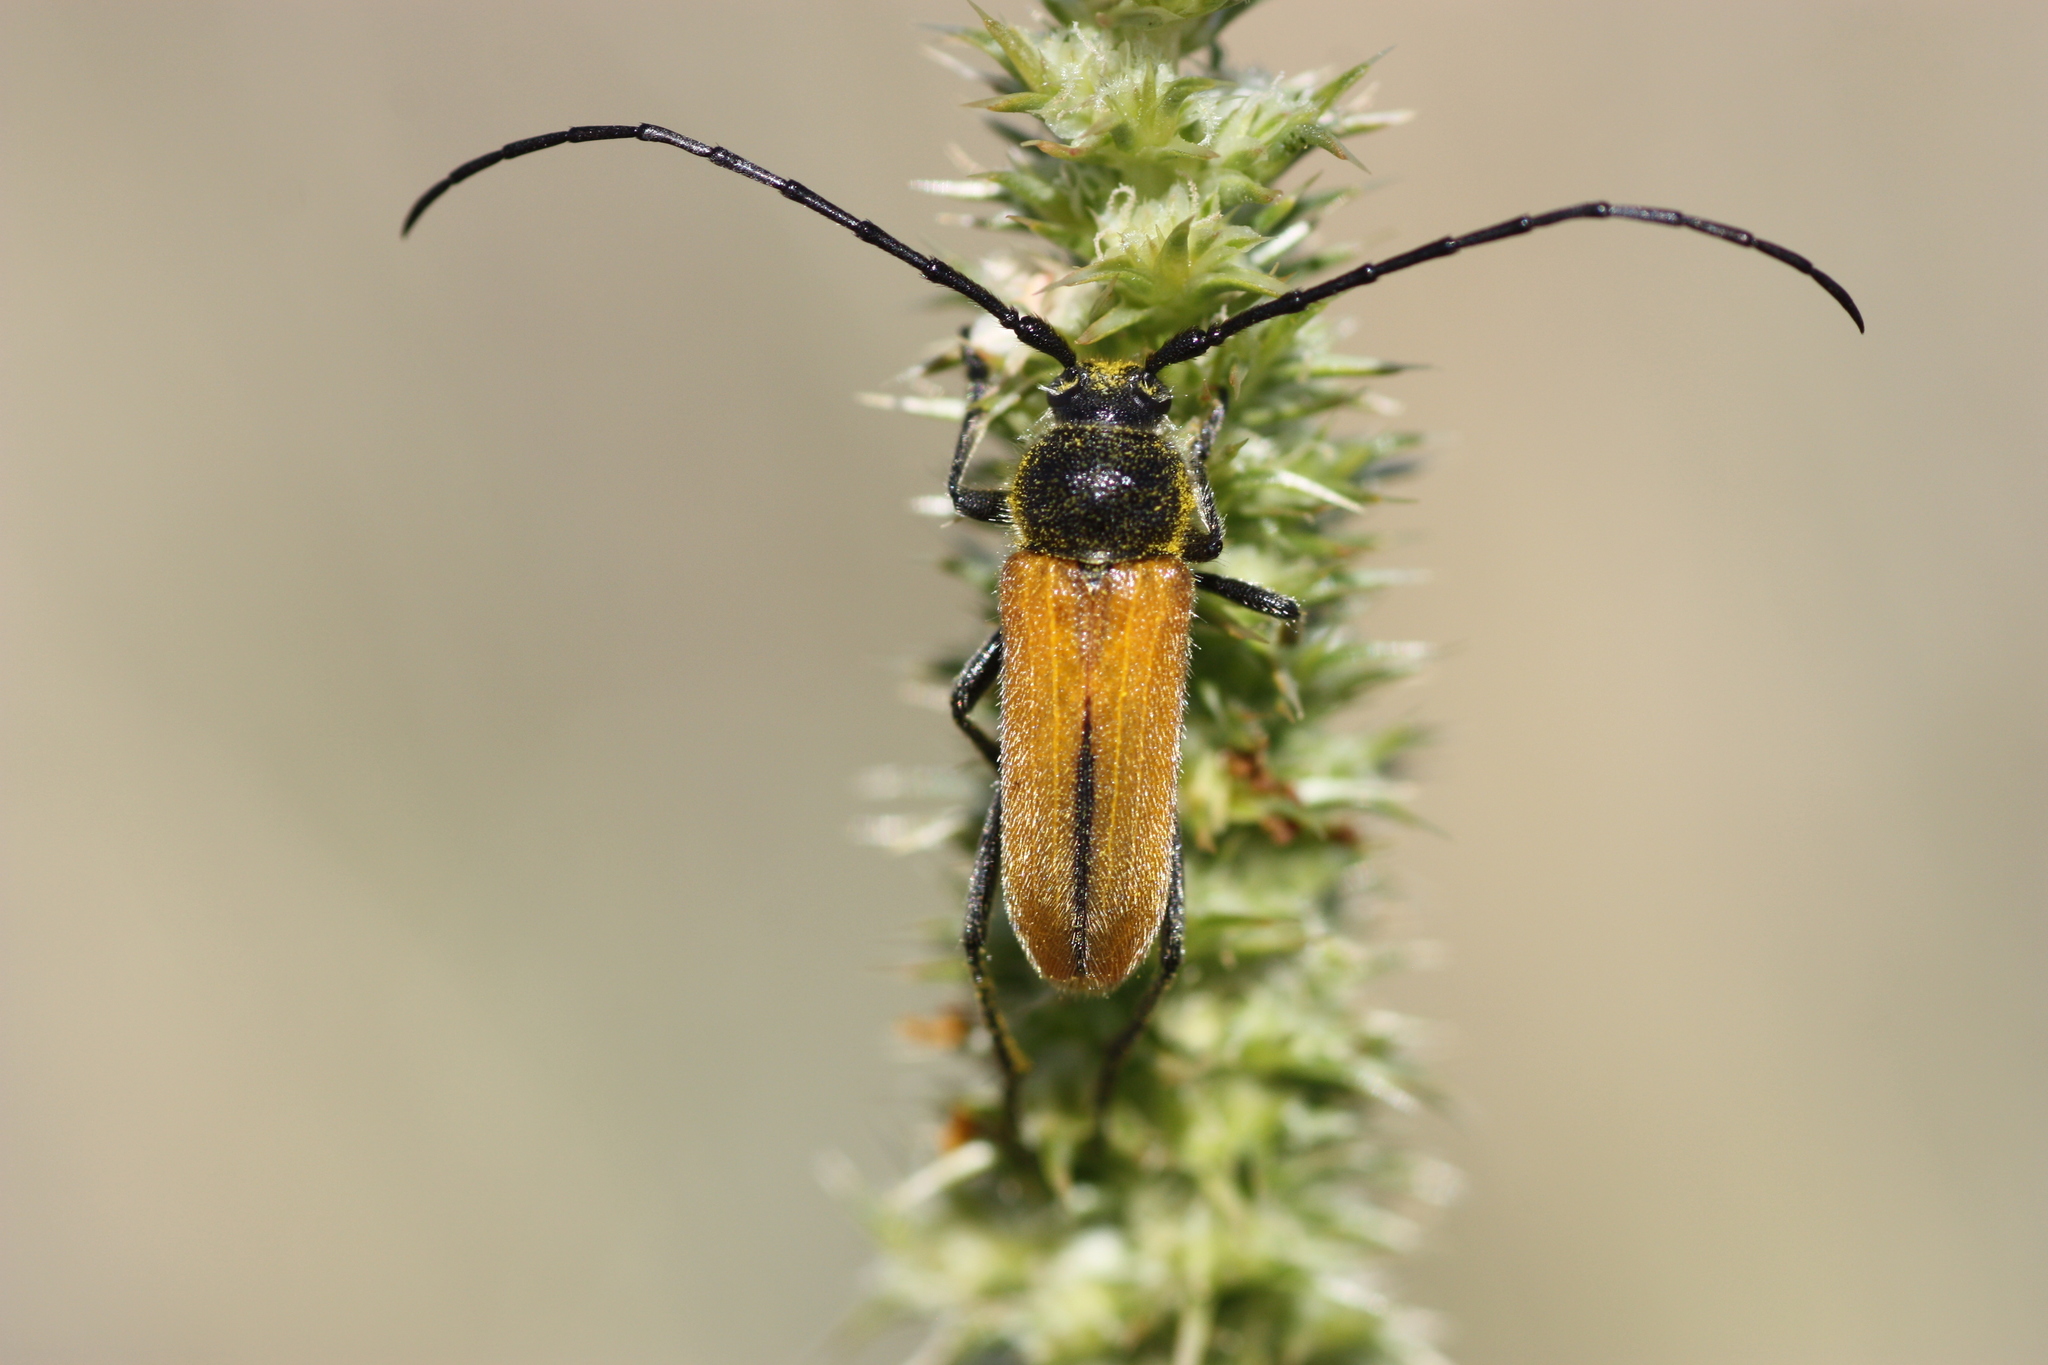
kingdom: Animalia
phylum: Arthropoda
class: Insecta
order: Coleoptera
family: Cerambycidae
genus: Crossidius
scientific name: Crossidius pulchellus
